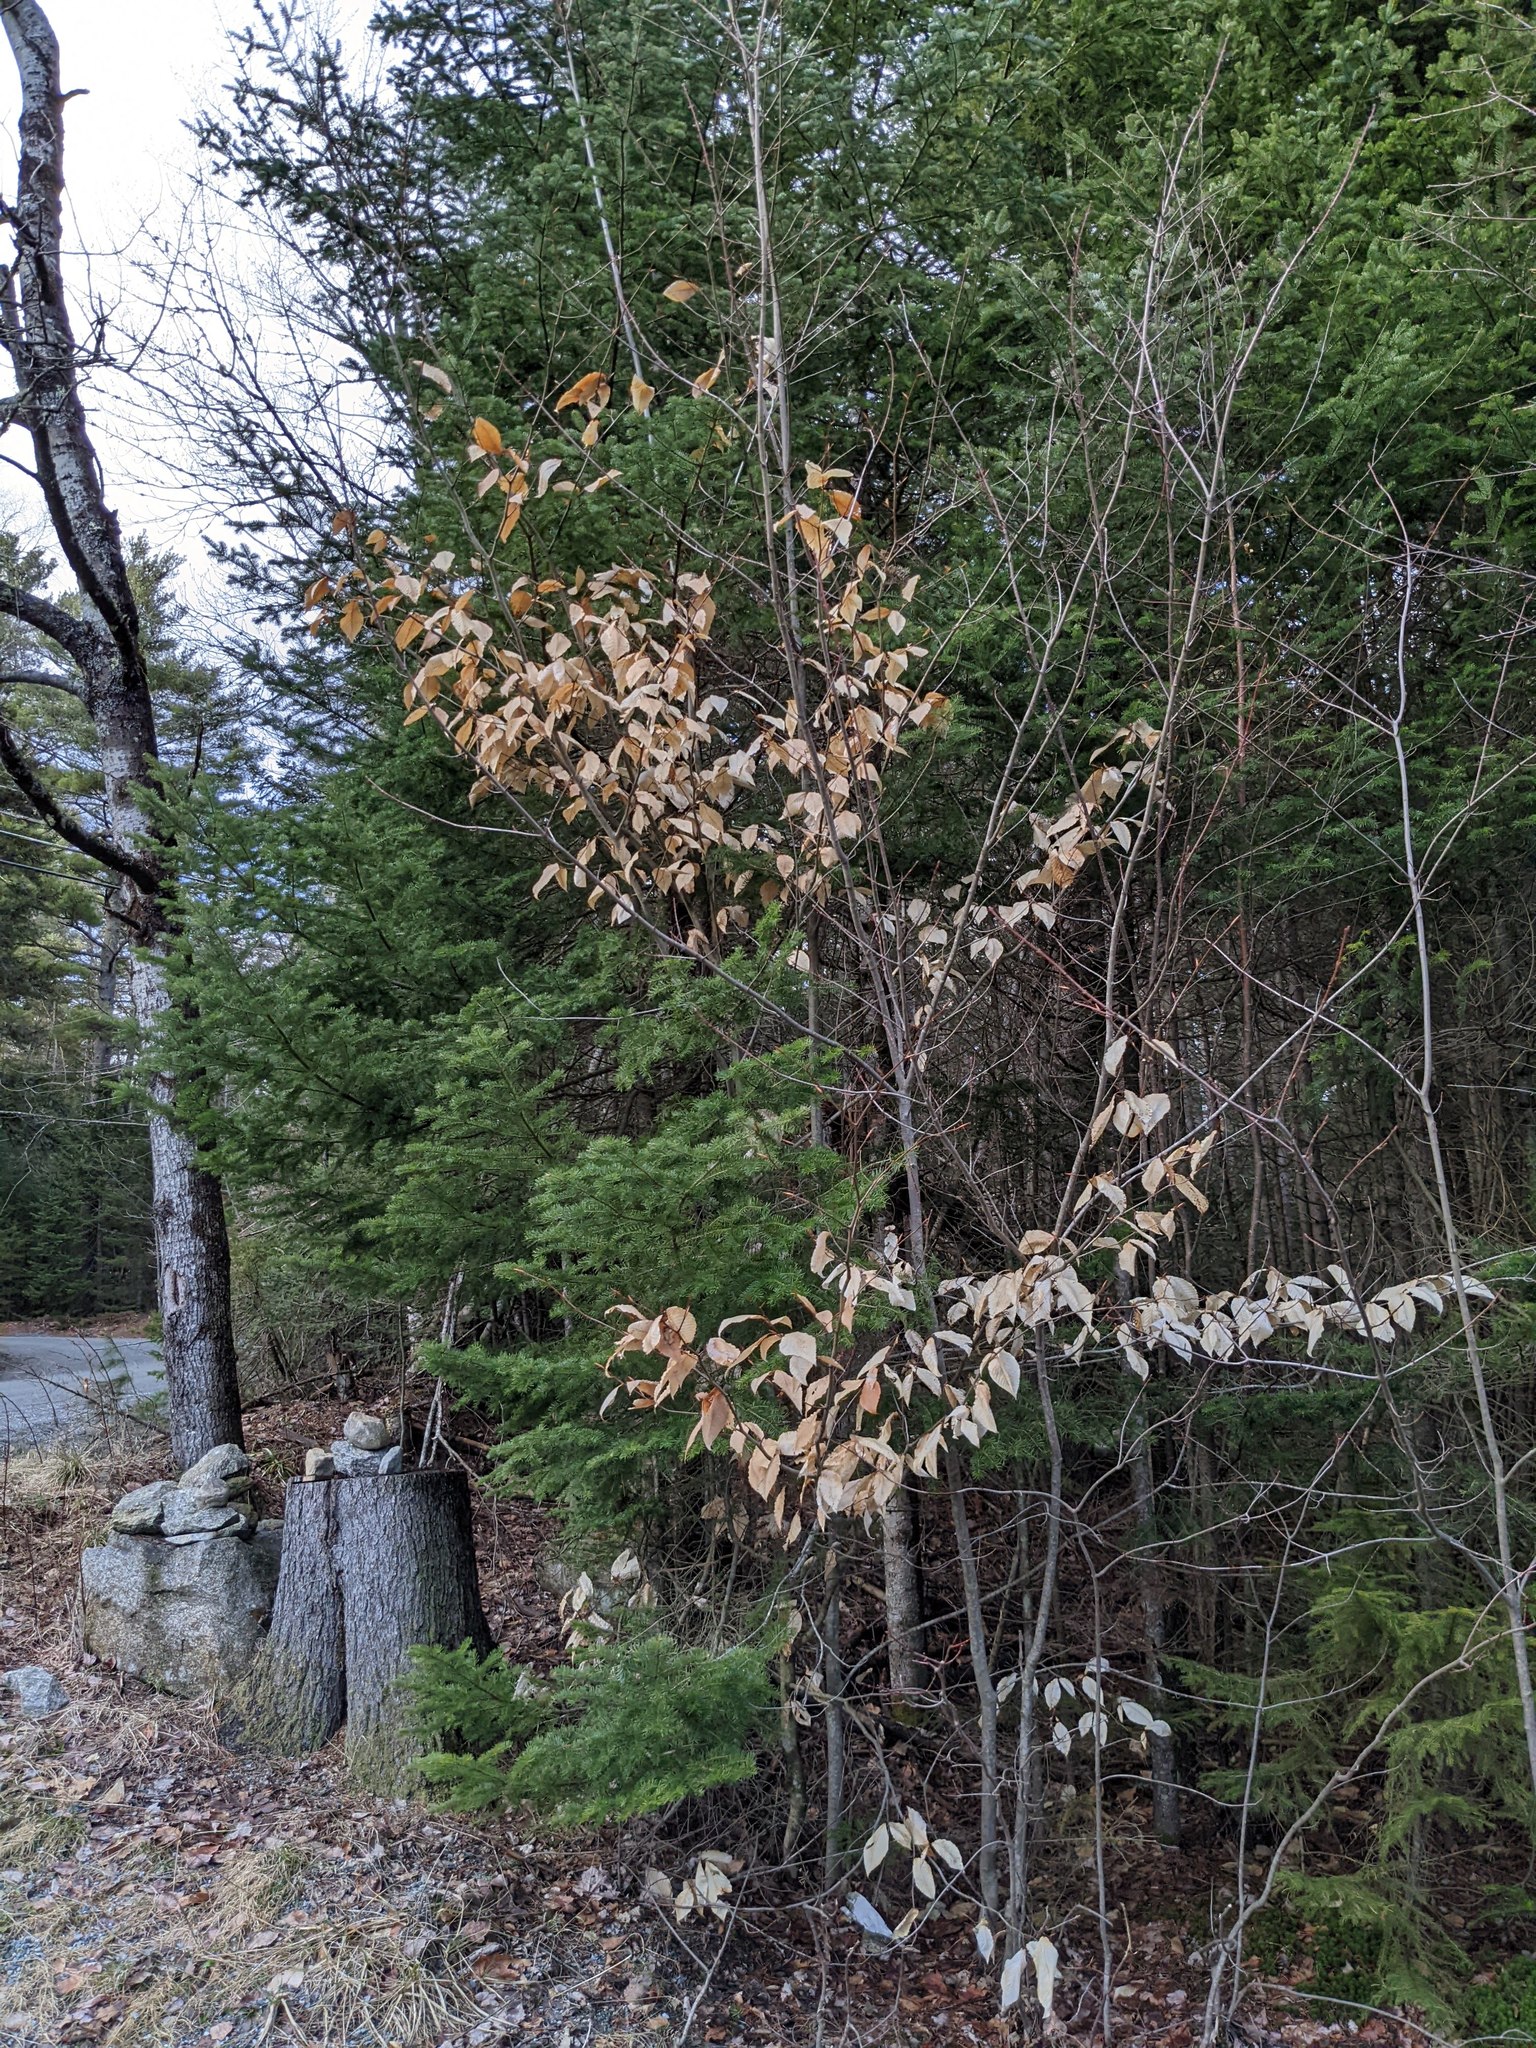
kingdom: Plantae
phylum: Tracheophyta
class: Magnoliopsida
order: Fagales
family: Fagaceae
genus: Fagus
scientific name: Fagus grandifolia
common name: American beech
